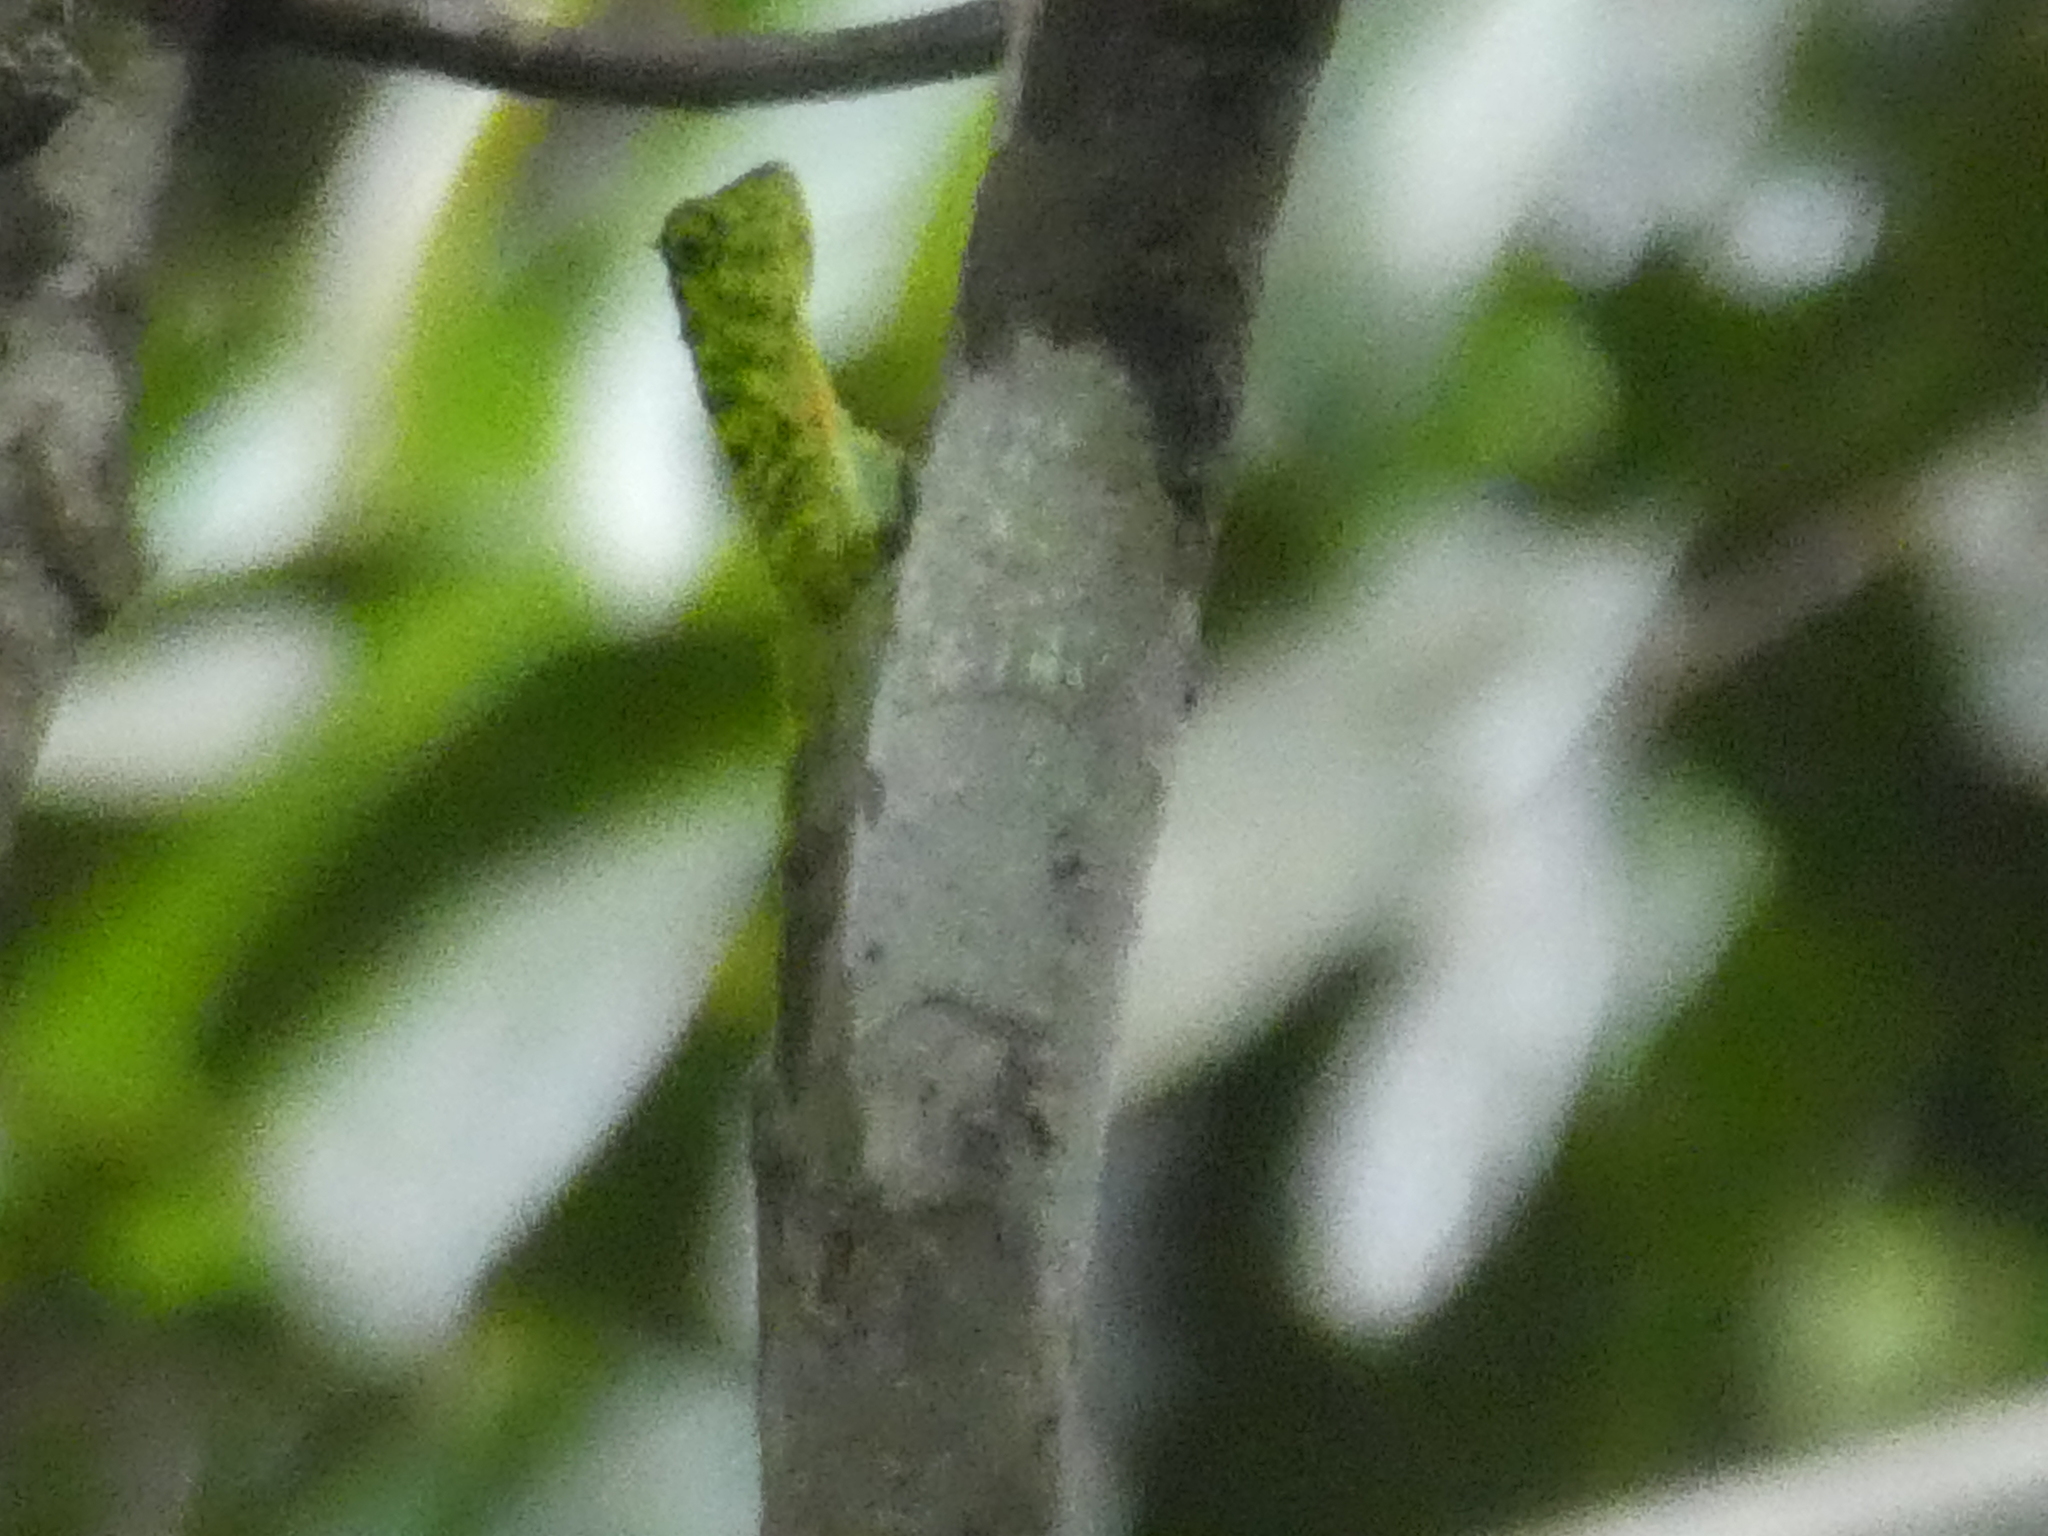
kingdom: Animalia
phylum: Chordata
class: Squamata
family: Agamidae
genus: Draco
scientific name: Draco cornutus
